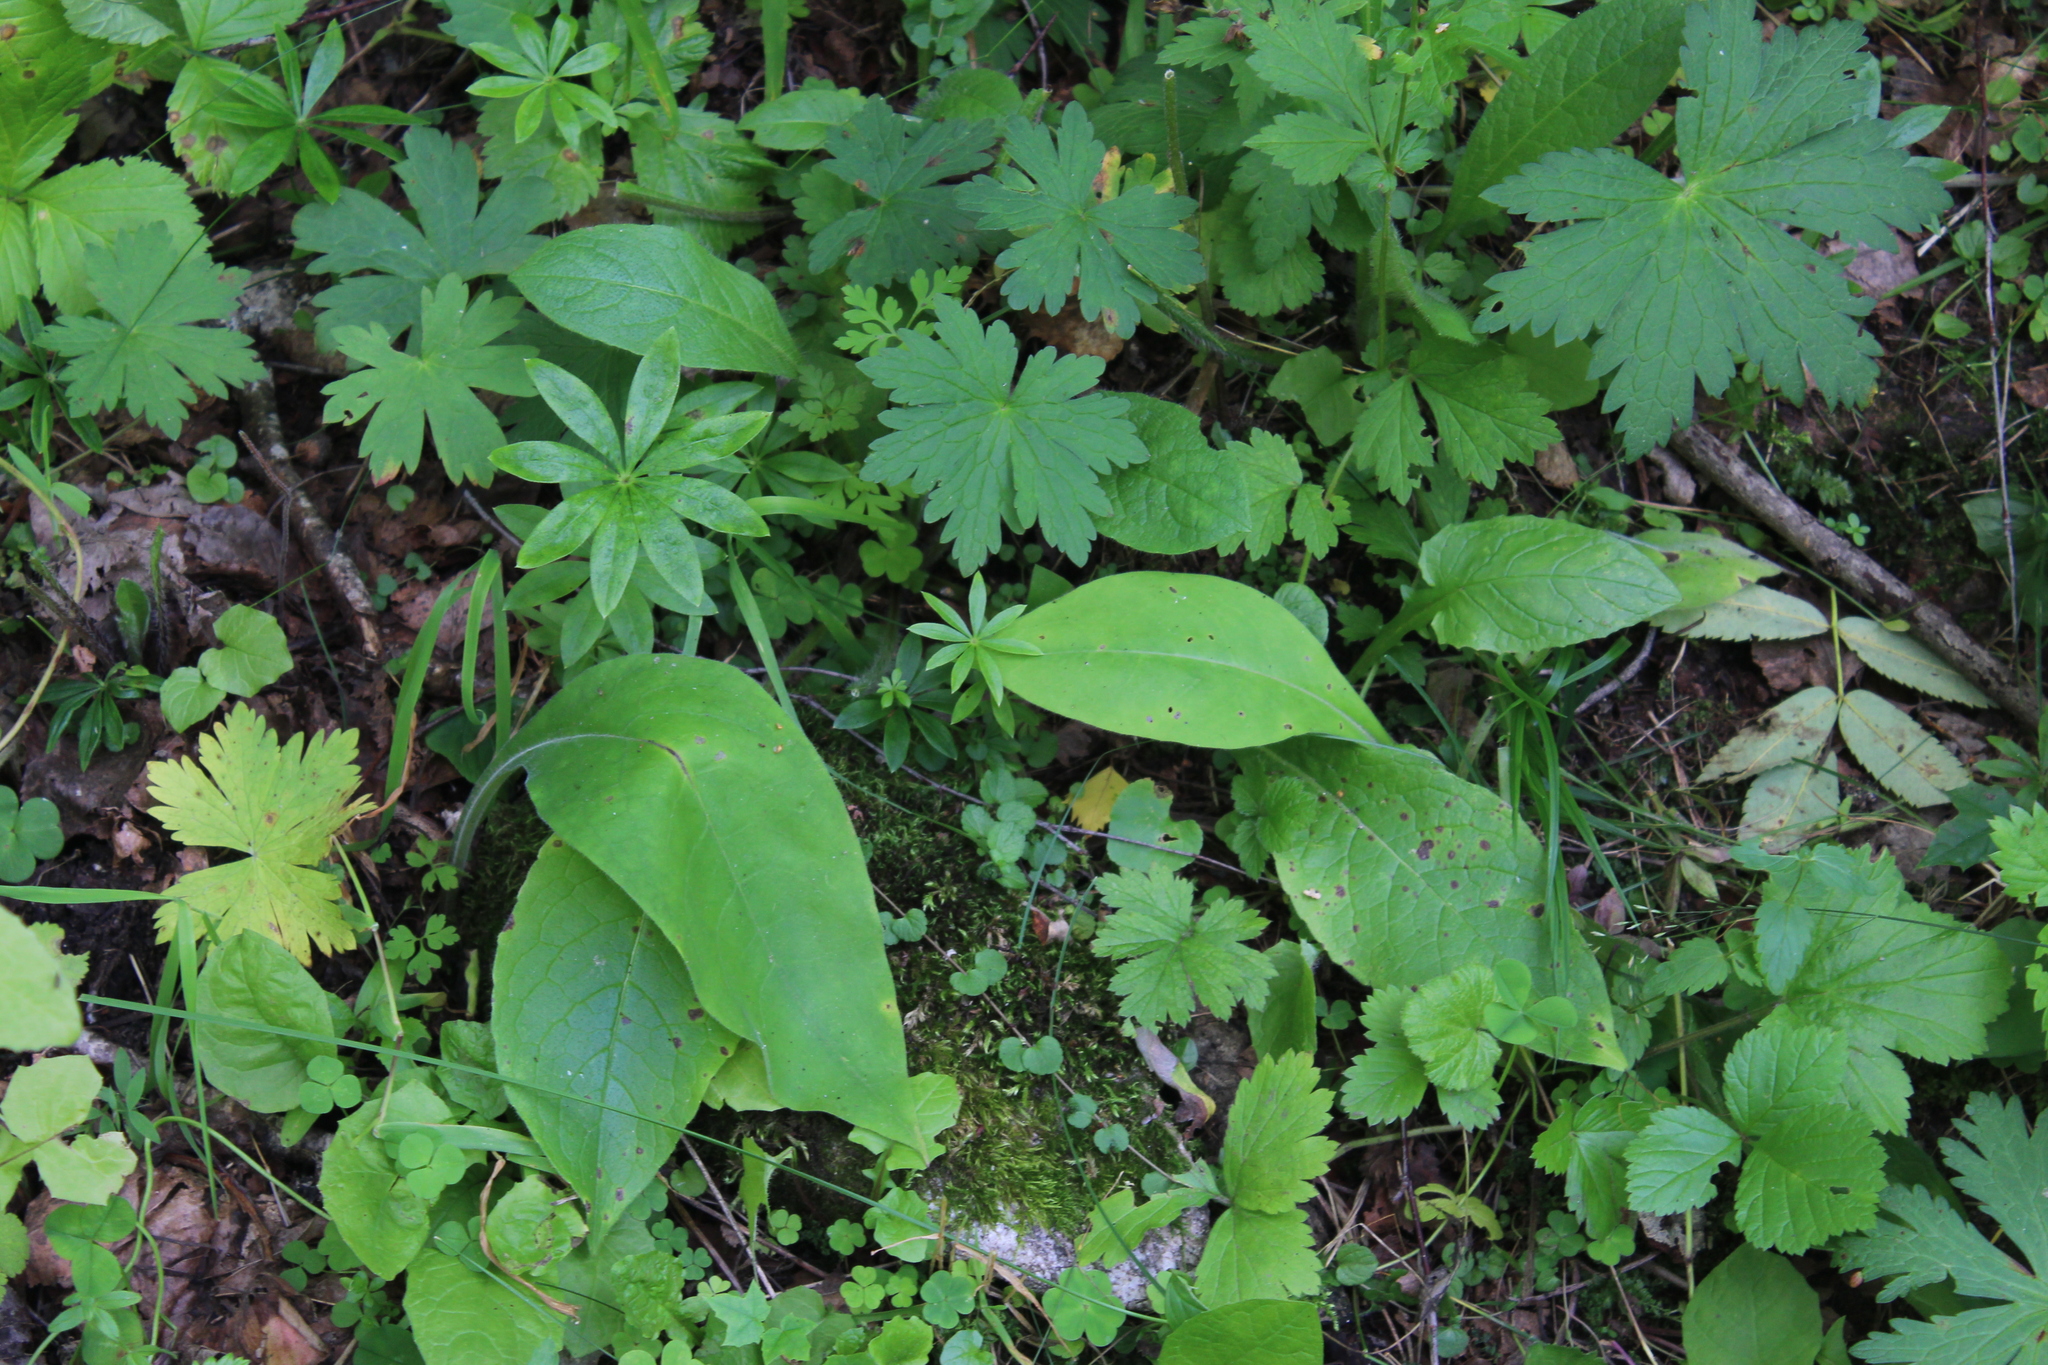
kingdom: Plantae
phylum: Tracheophyta
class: Magnoliopsida
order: Boraginales
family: Boraginaceae
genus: Pulmonaria
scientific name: Pulmonaria mollis
